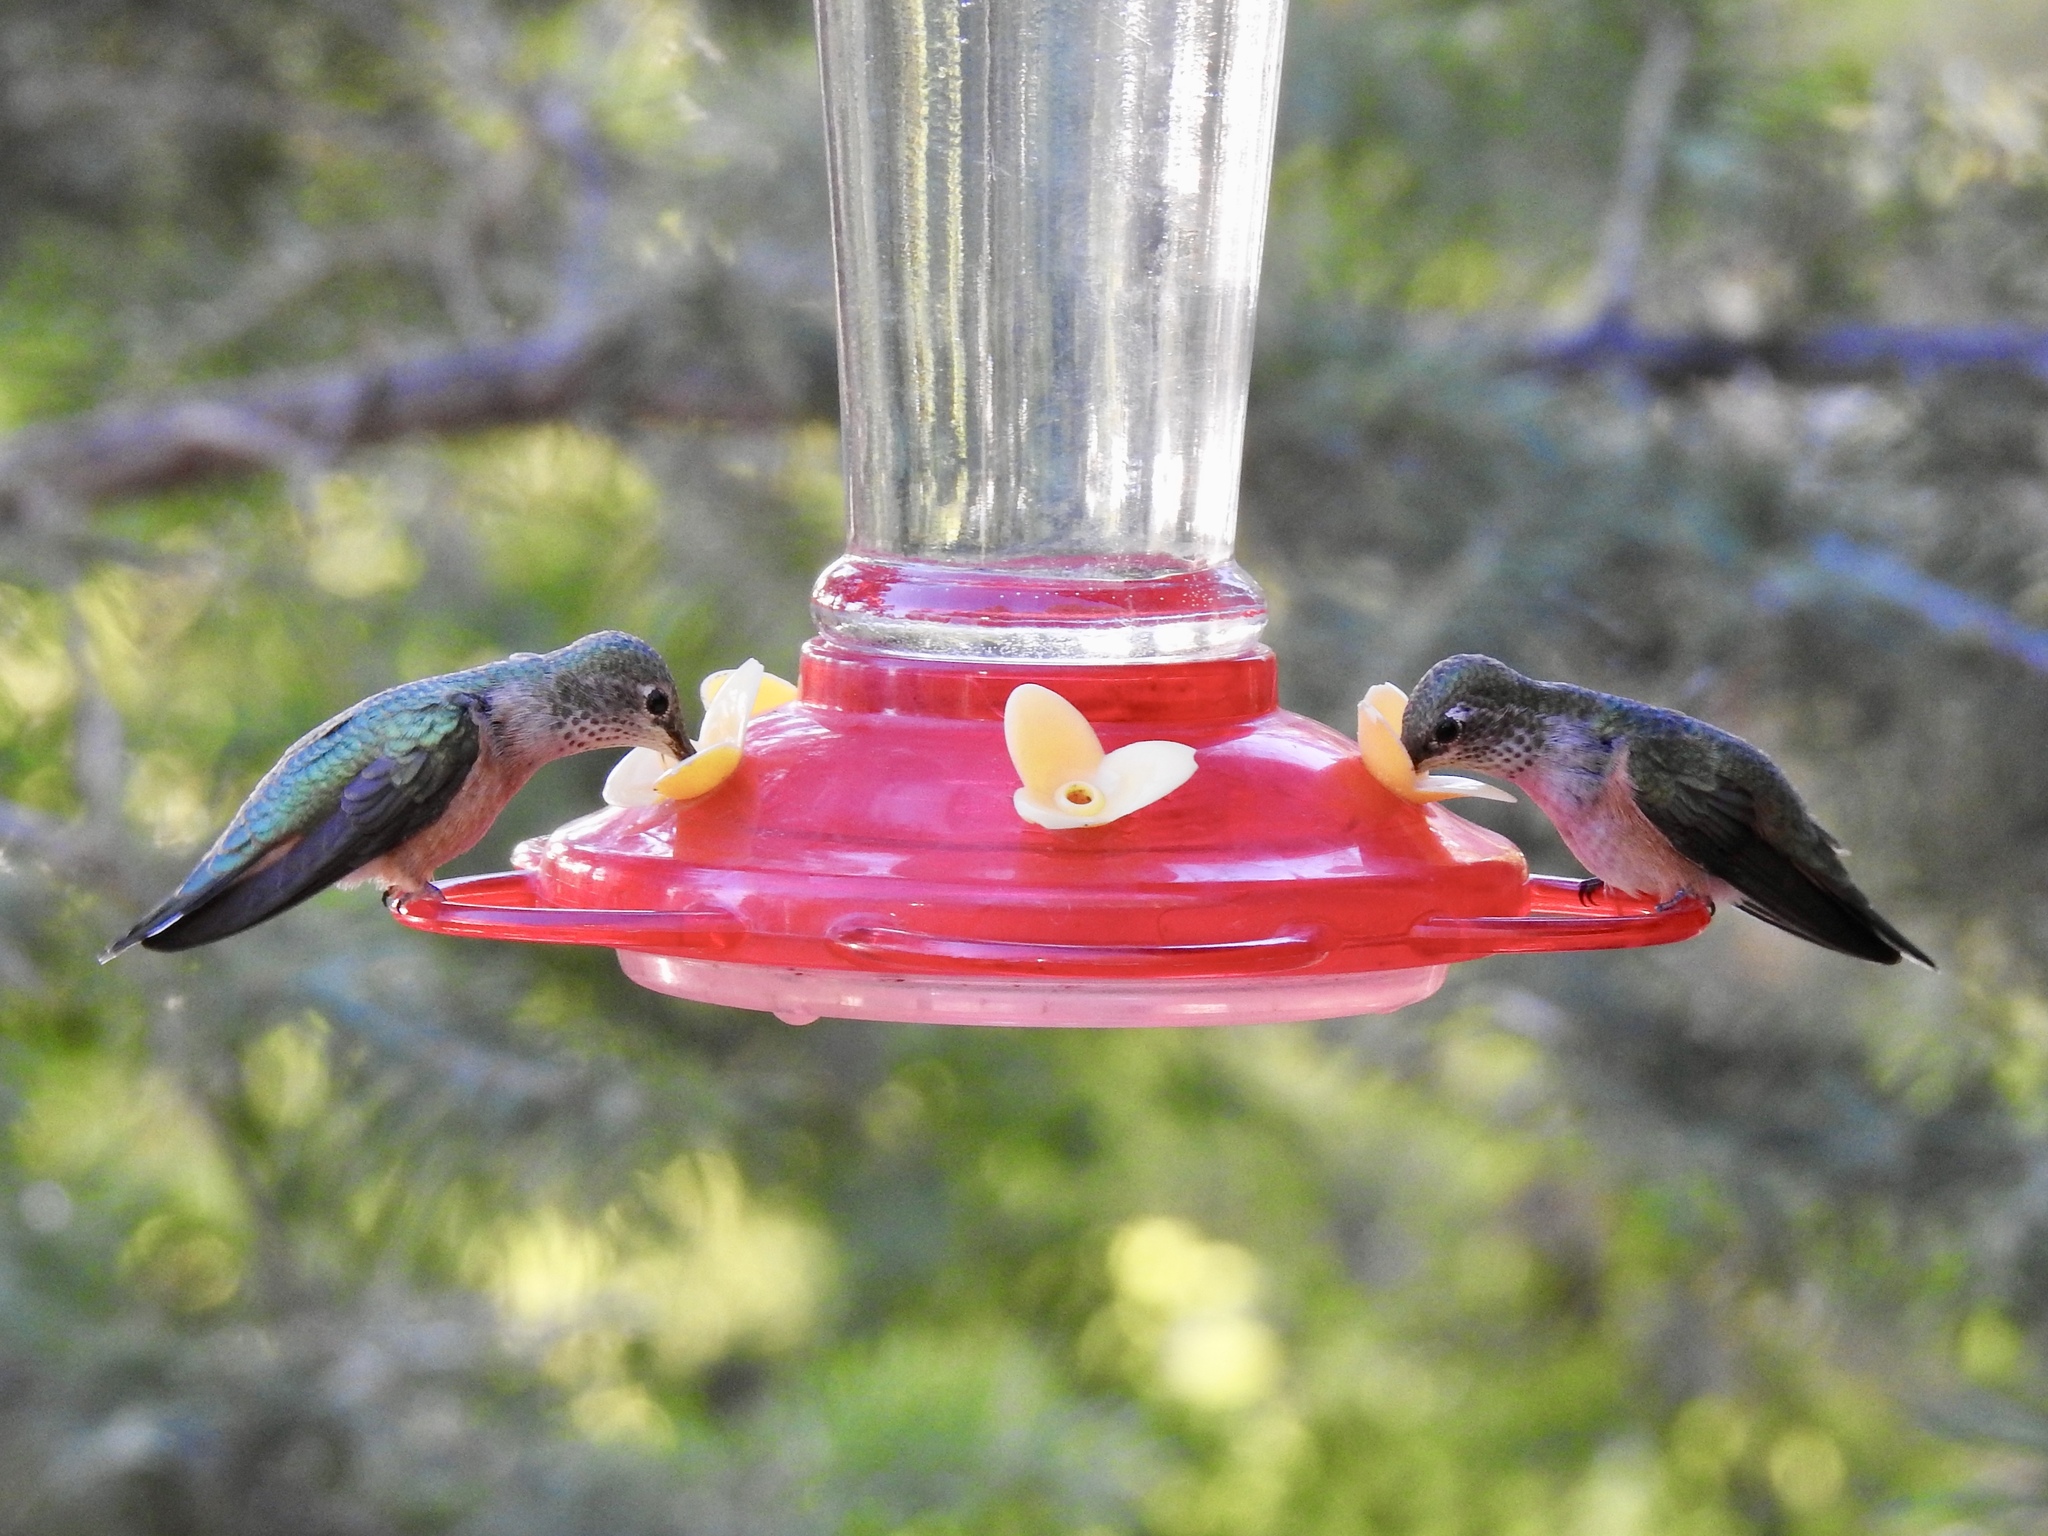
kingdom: Animalia
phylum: Chordata
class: Aves
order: Apodiformes
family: Trochilidae
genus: Selasphorus
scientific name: Selasphorus platycercus
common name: Broad-tailed hummingbird
